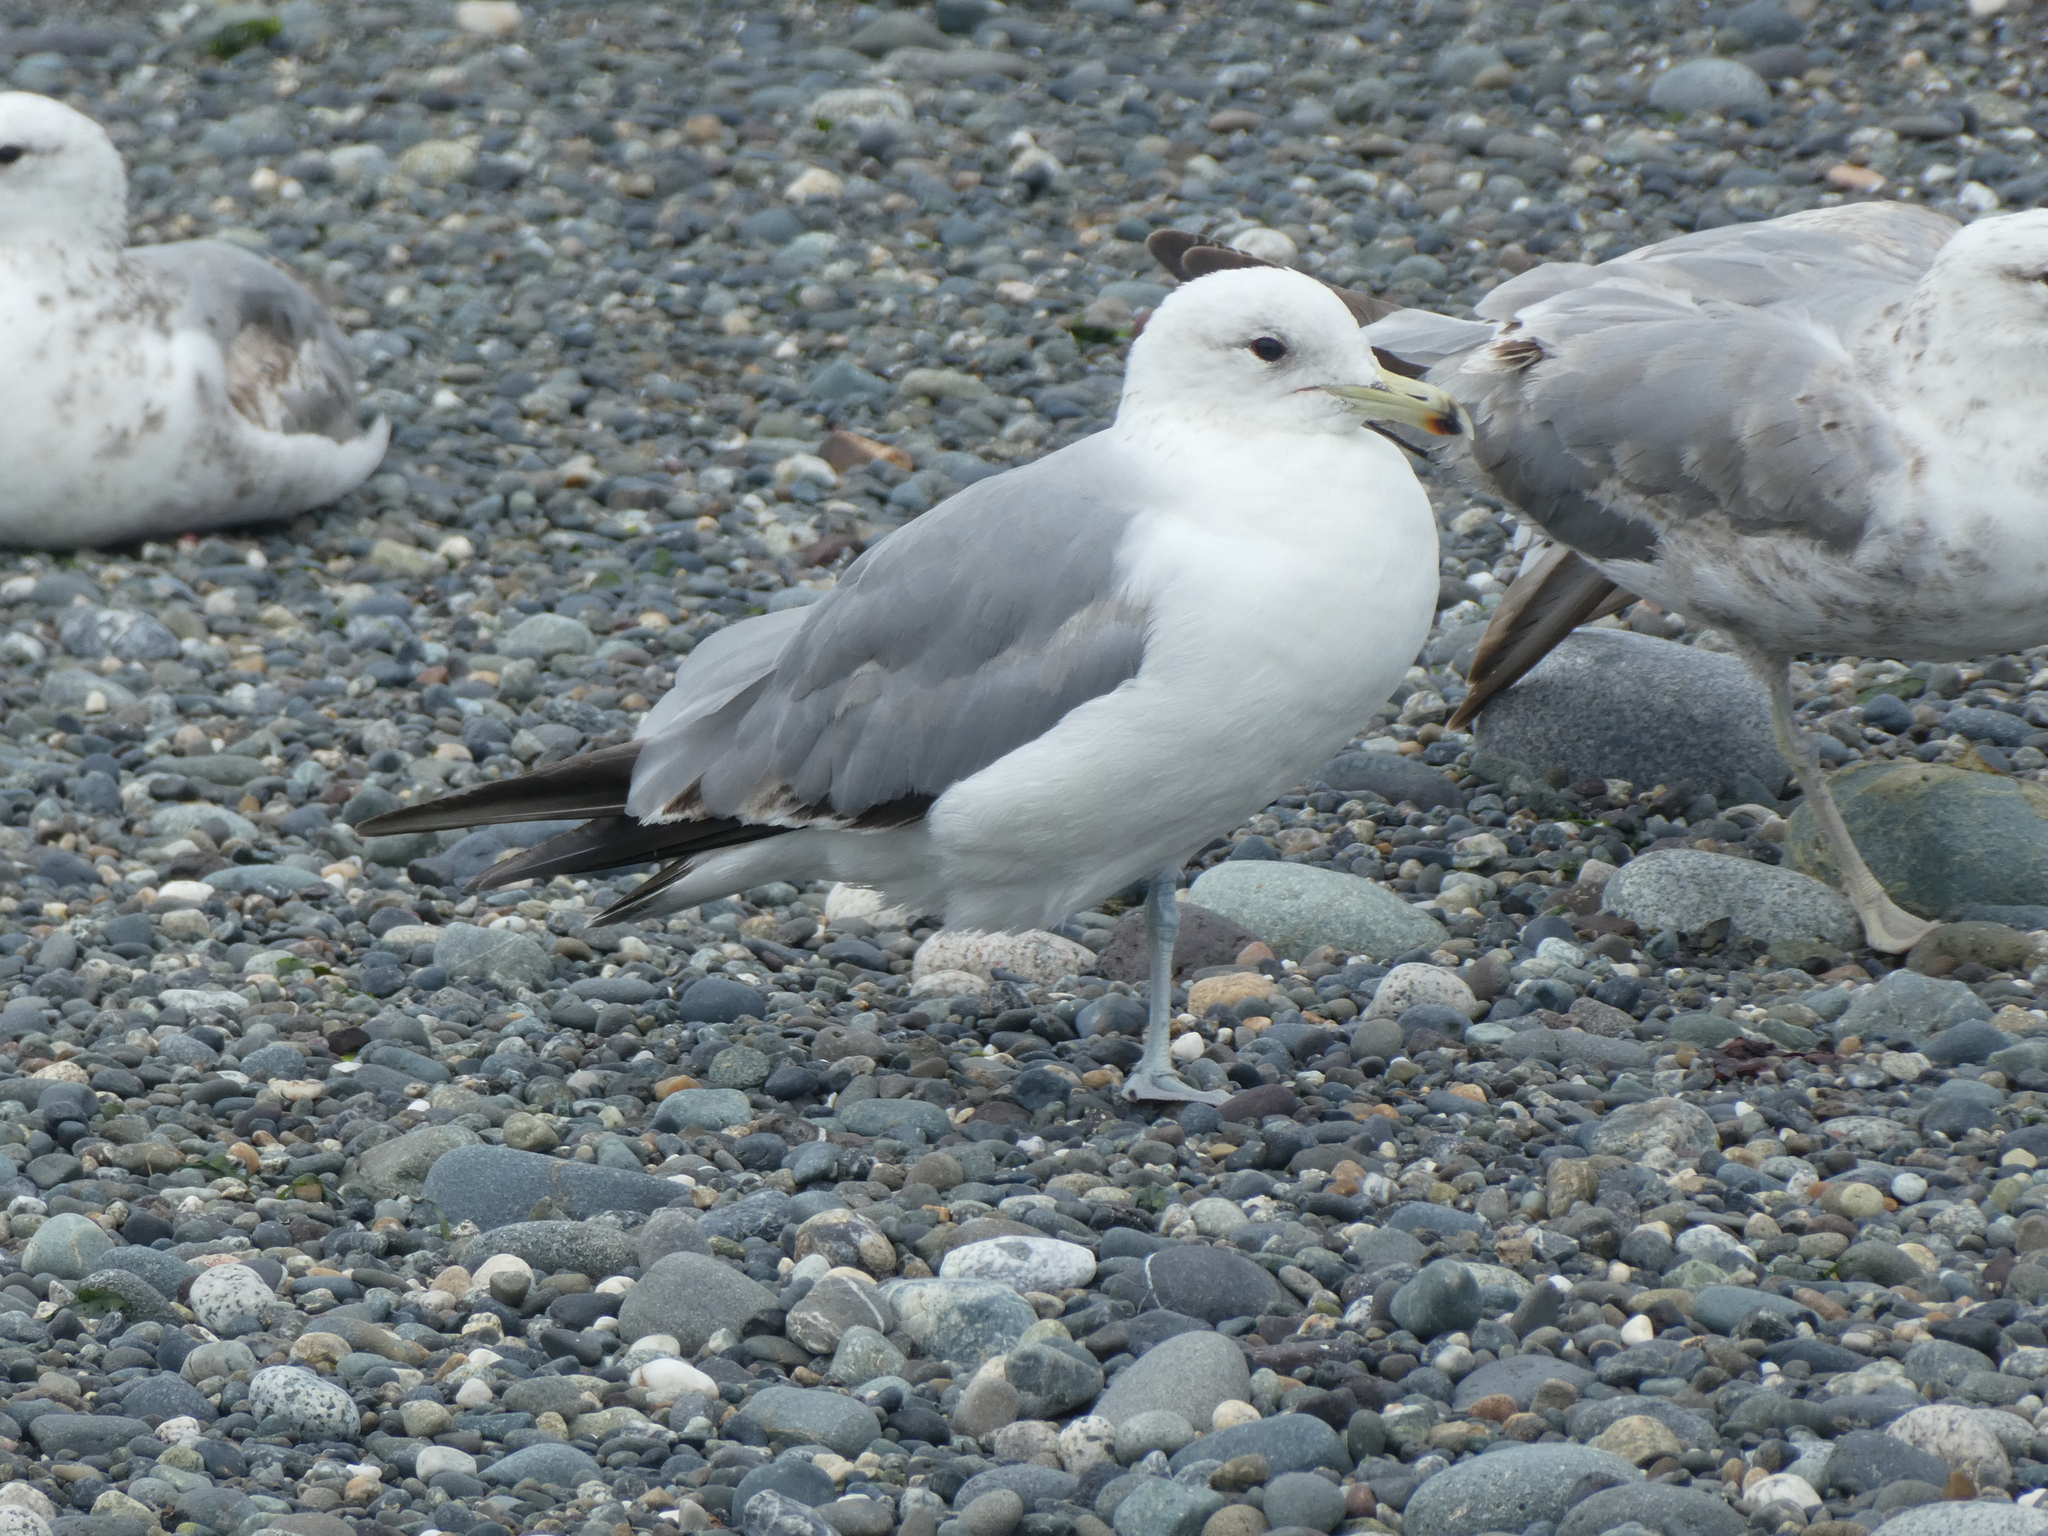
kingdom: Animalia
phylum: Chordata
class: Aves
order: Charadriiformes
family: Laridae
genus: Larus
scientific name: Larus californicus
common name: California gull
